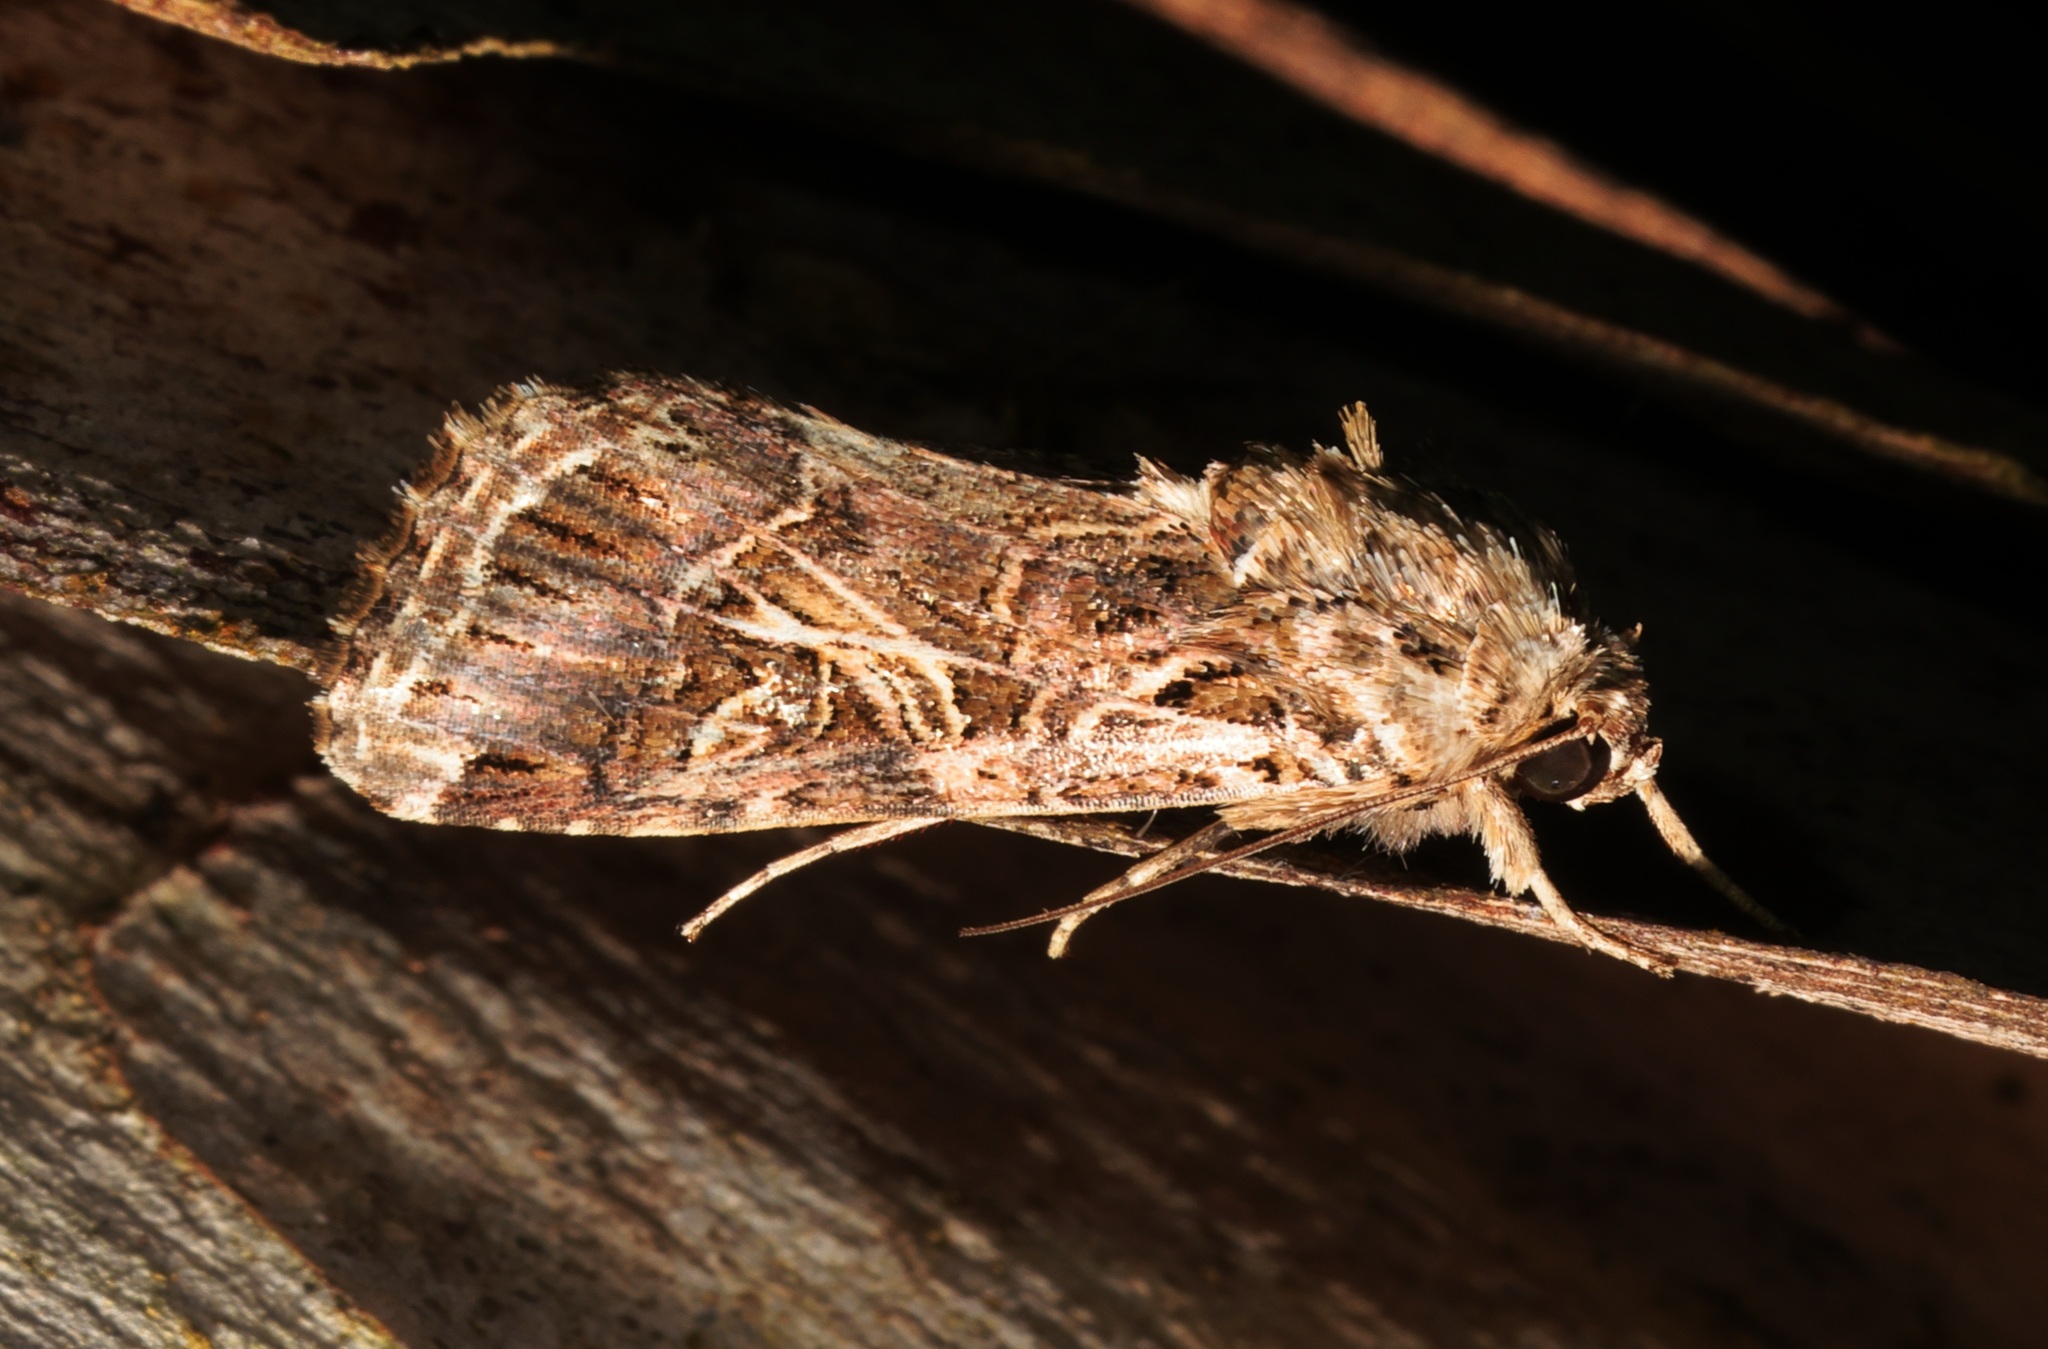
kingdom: Animalia
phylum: Arthropoda
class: Insecta
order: Lepidoptera
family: Noctuidae
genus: Spodoptera
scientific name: Spodoptera litura
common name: Asian cotton leafworm
